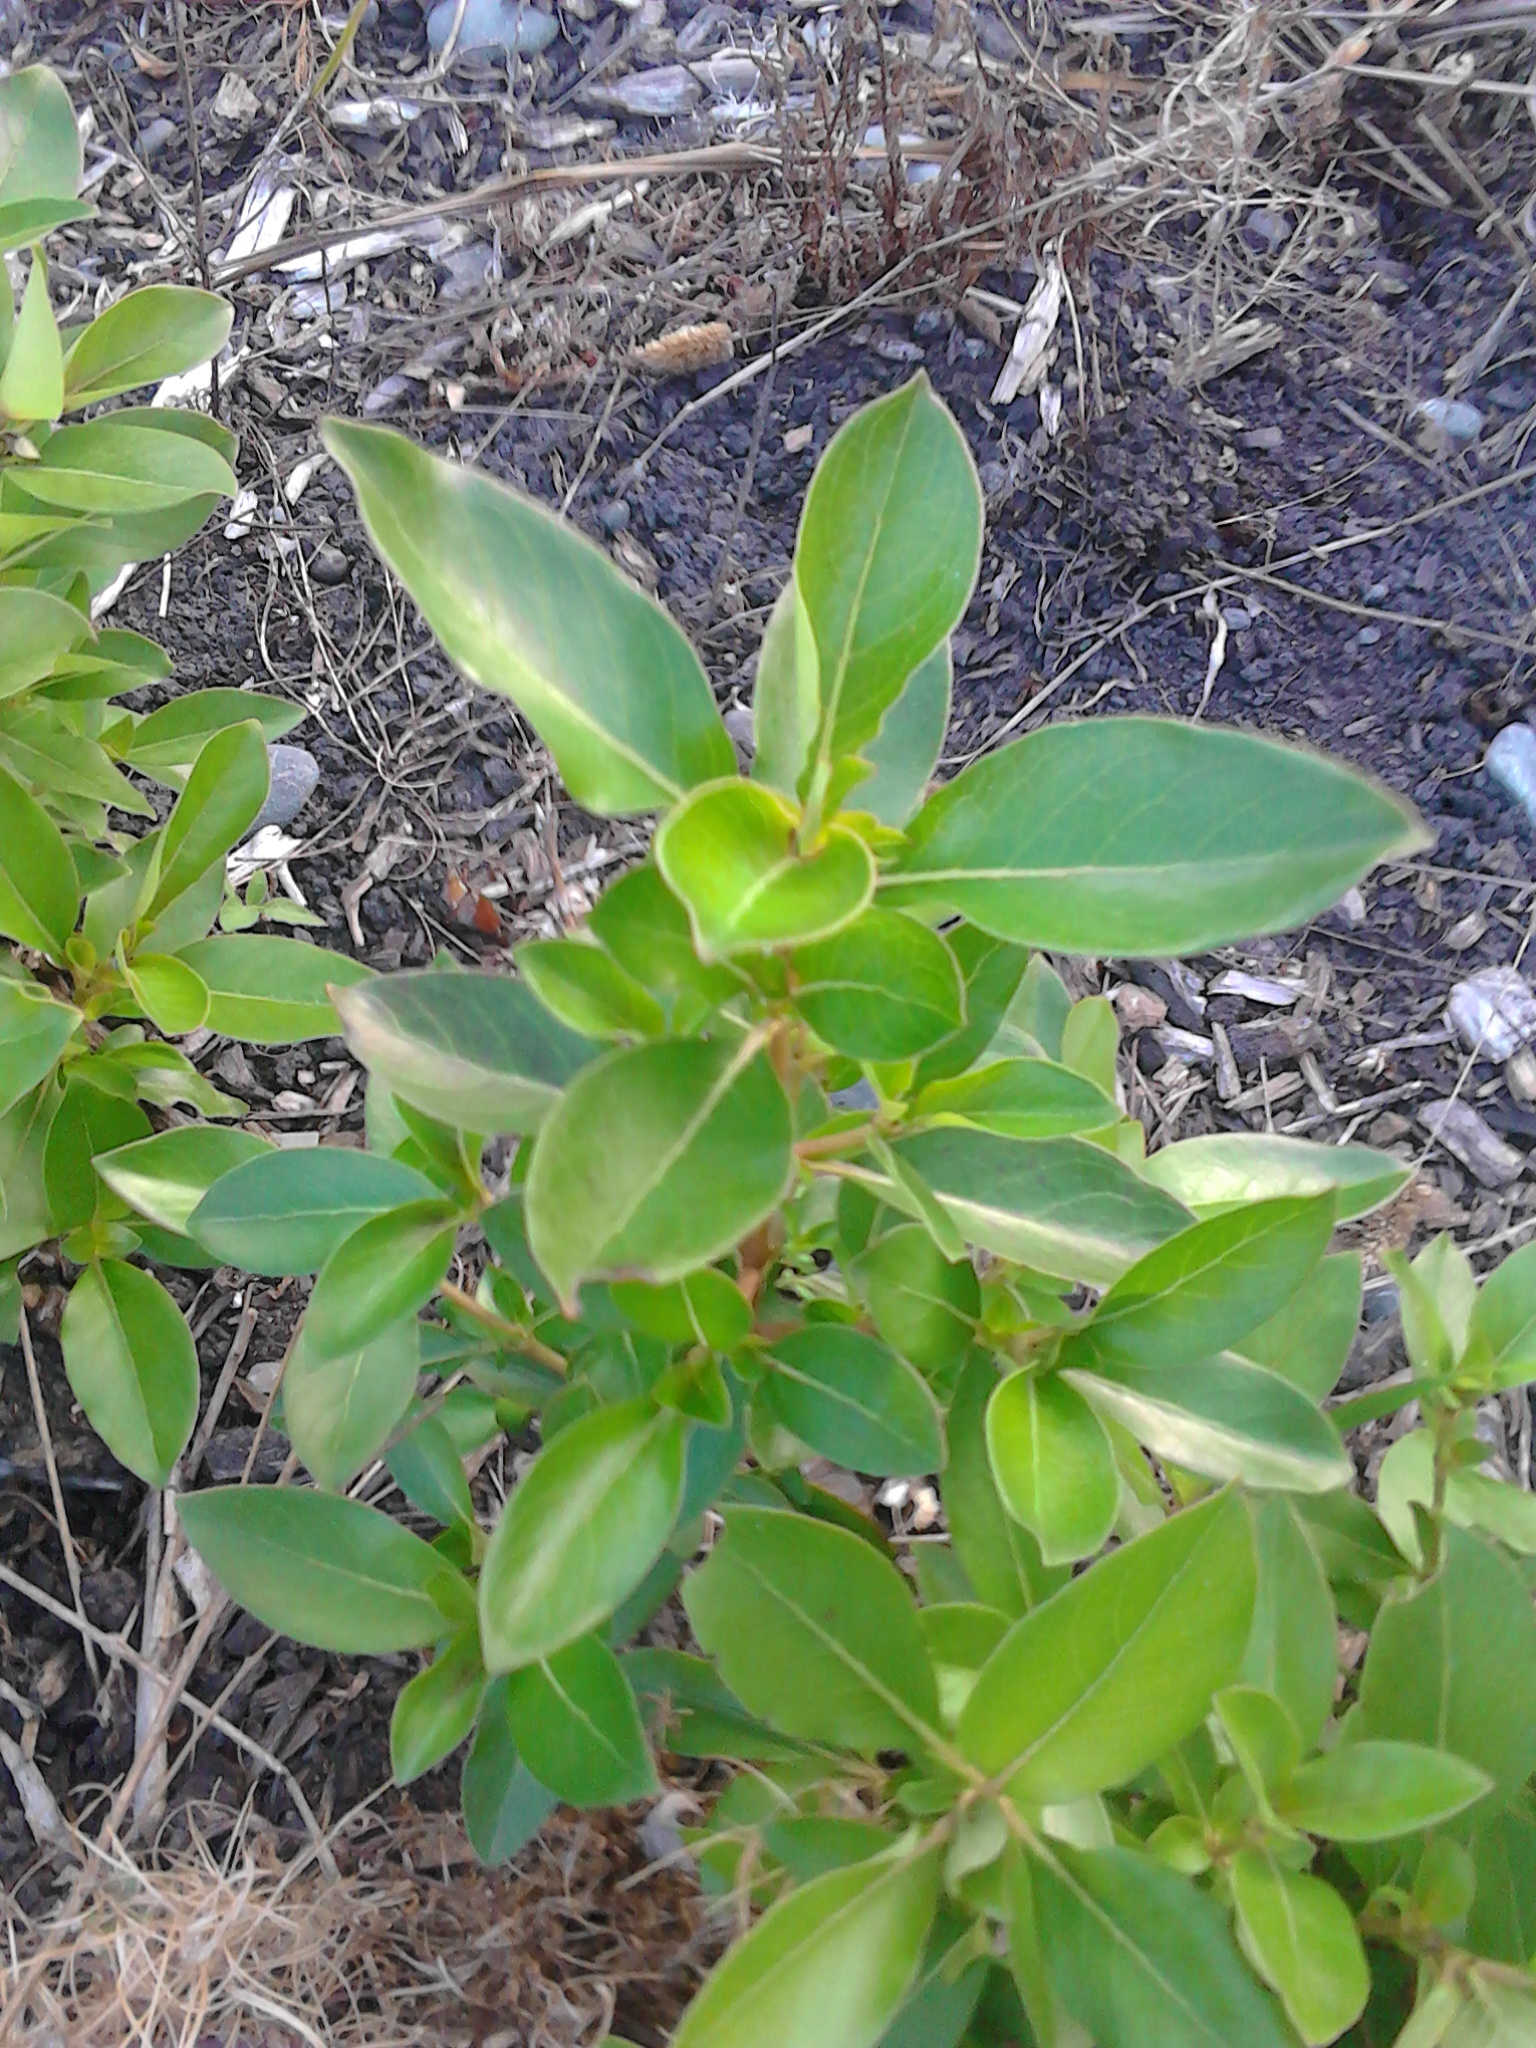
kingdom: Plantae
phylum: Tracheophyta
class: Magnoliopsida
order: Gentianales
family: Rubiaceae
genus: Coprosma
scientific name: Coprosma robusta
